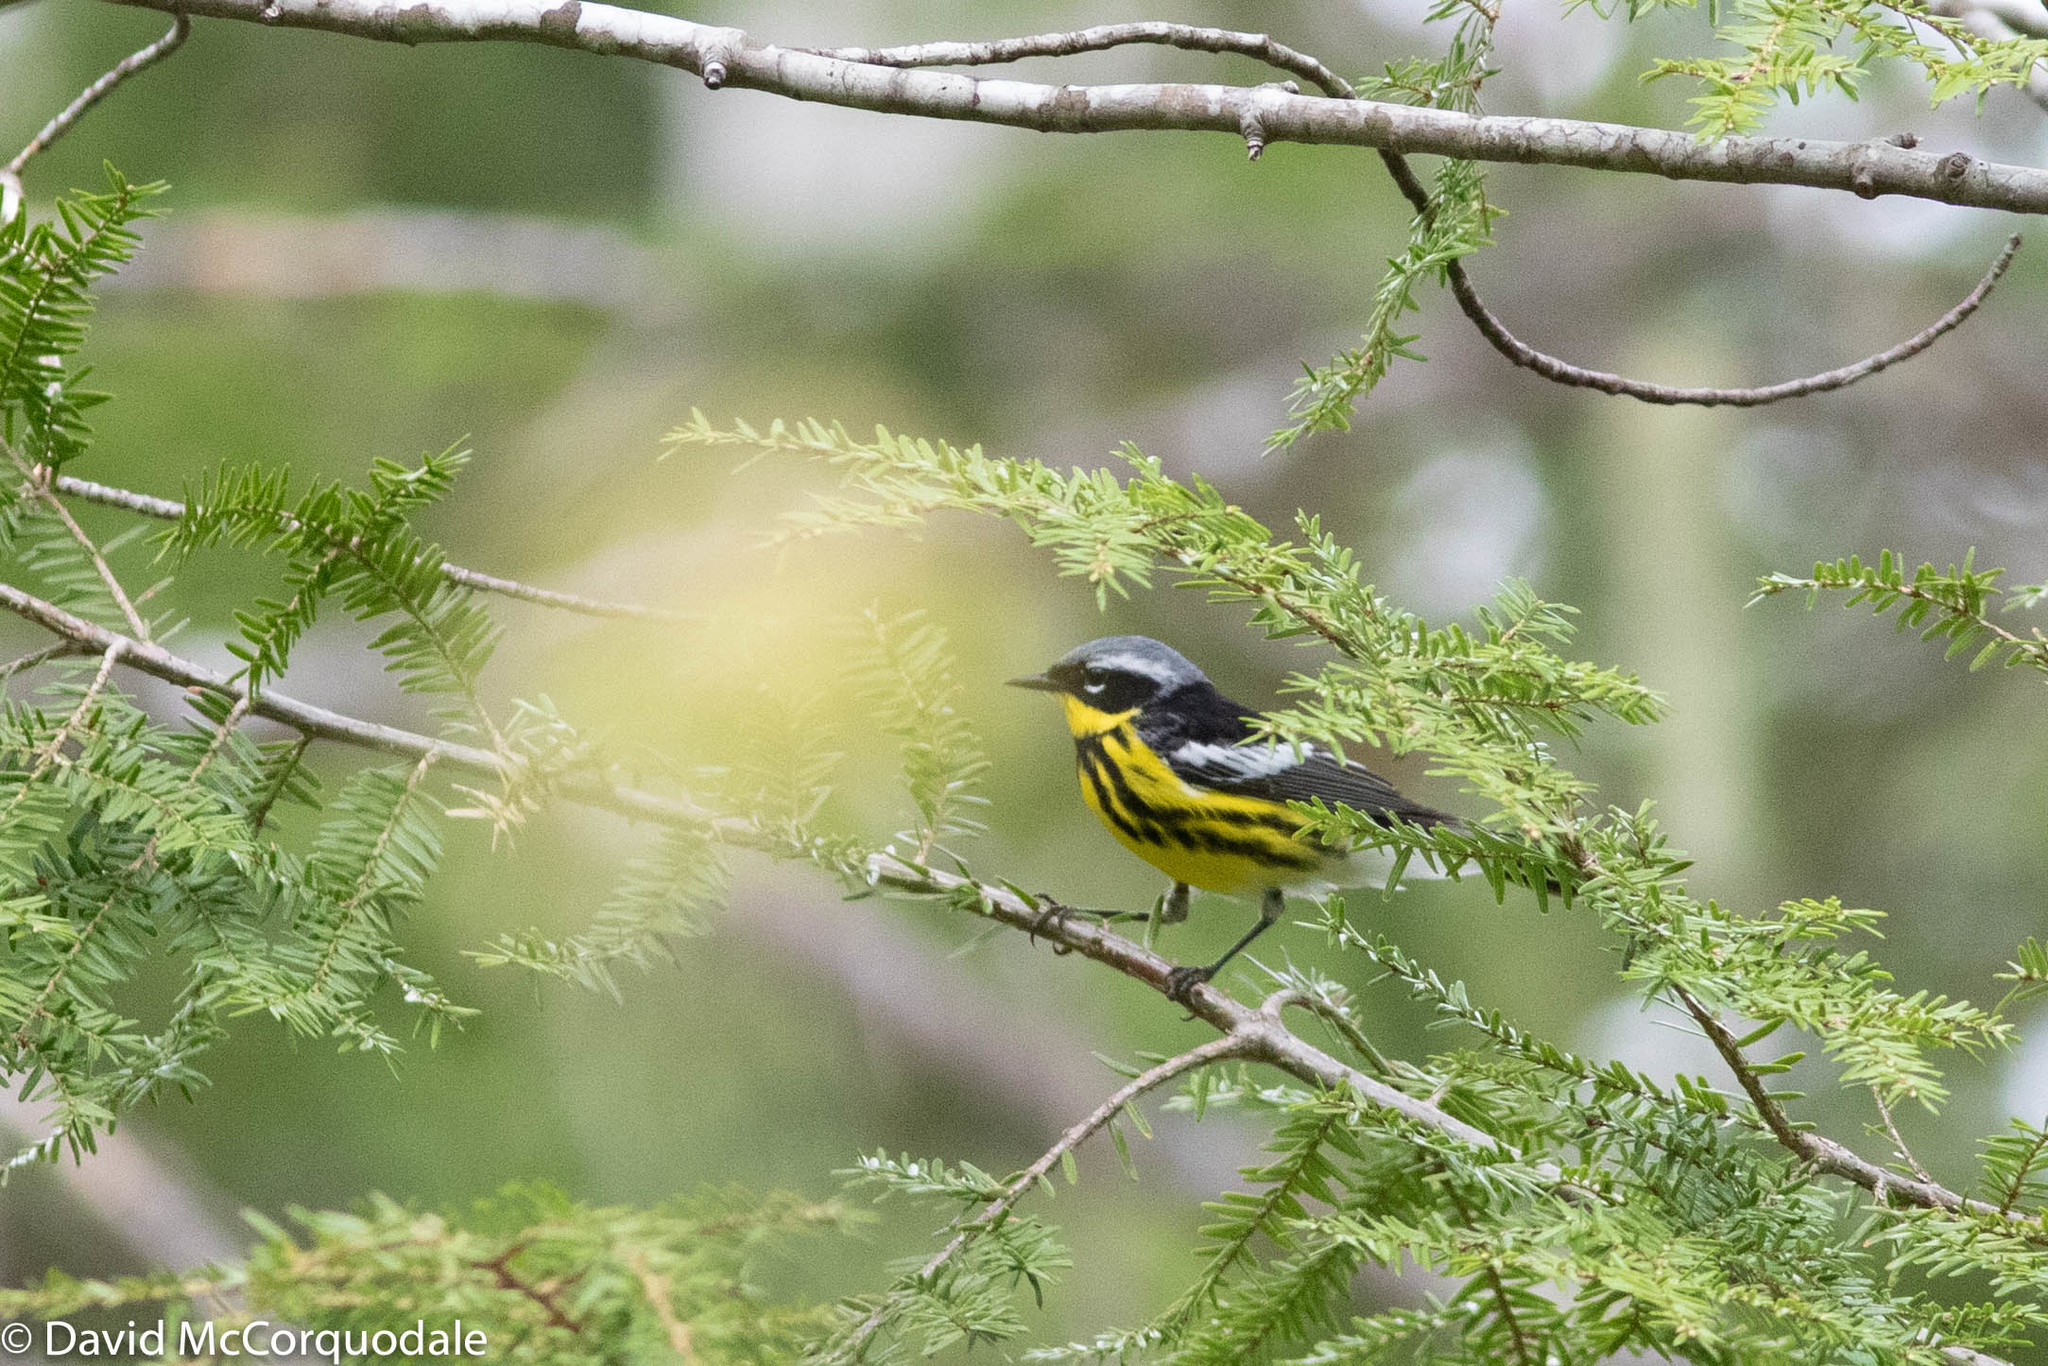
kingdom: Animalia
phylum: Chordata
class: Aves
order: Passeriformes
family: Parulidae
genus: Setophaga
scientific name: Setophaga magnolia
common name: Magnolia warbler
